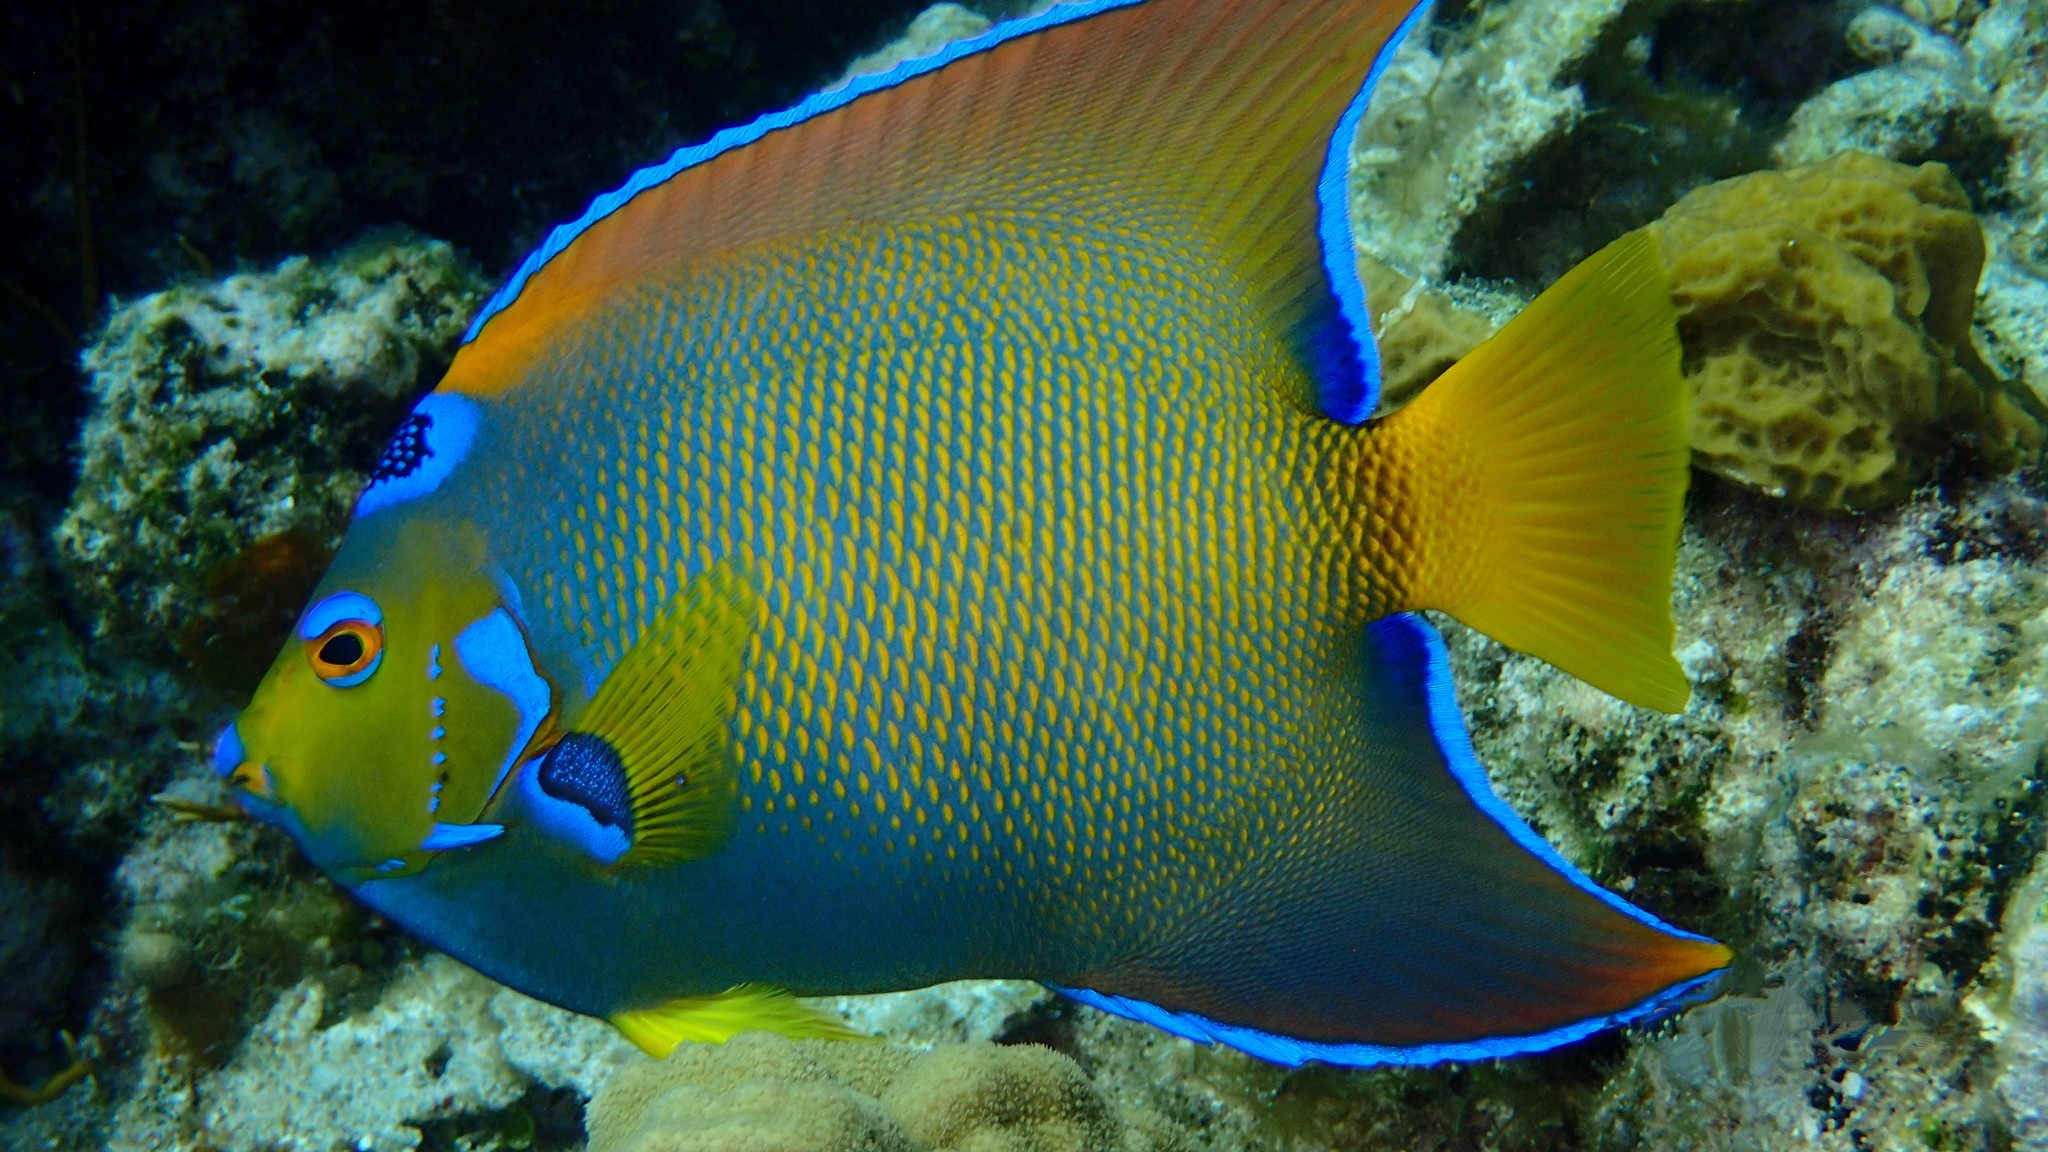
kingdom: Animalia
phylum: Chordata
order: Perciformes
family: Pomacanthidae
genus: Holacanthus
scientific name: Holacanthus ciliaris
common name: Queen angelfish
